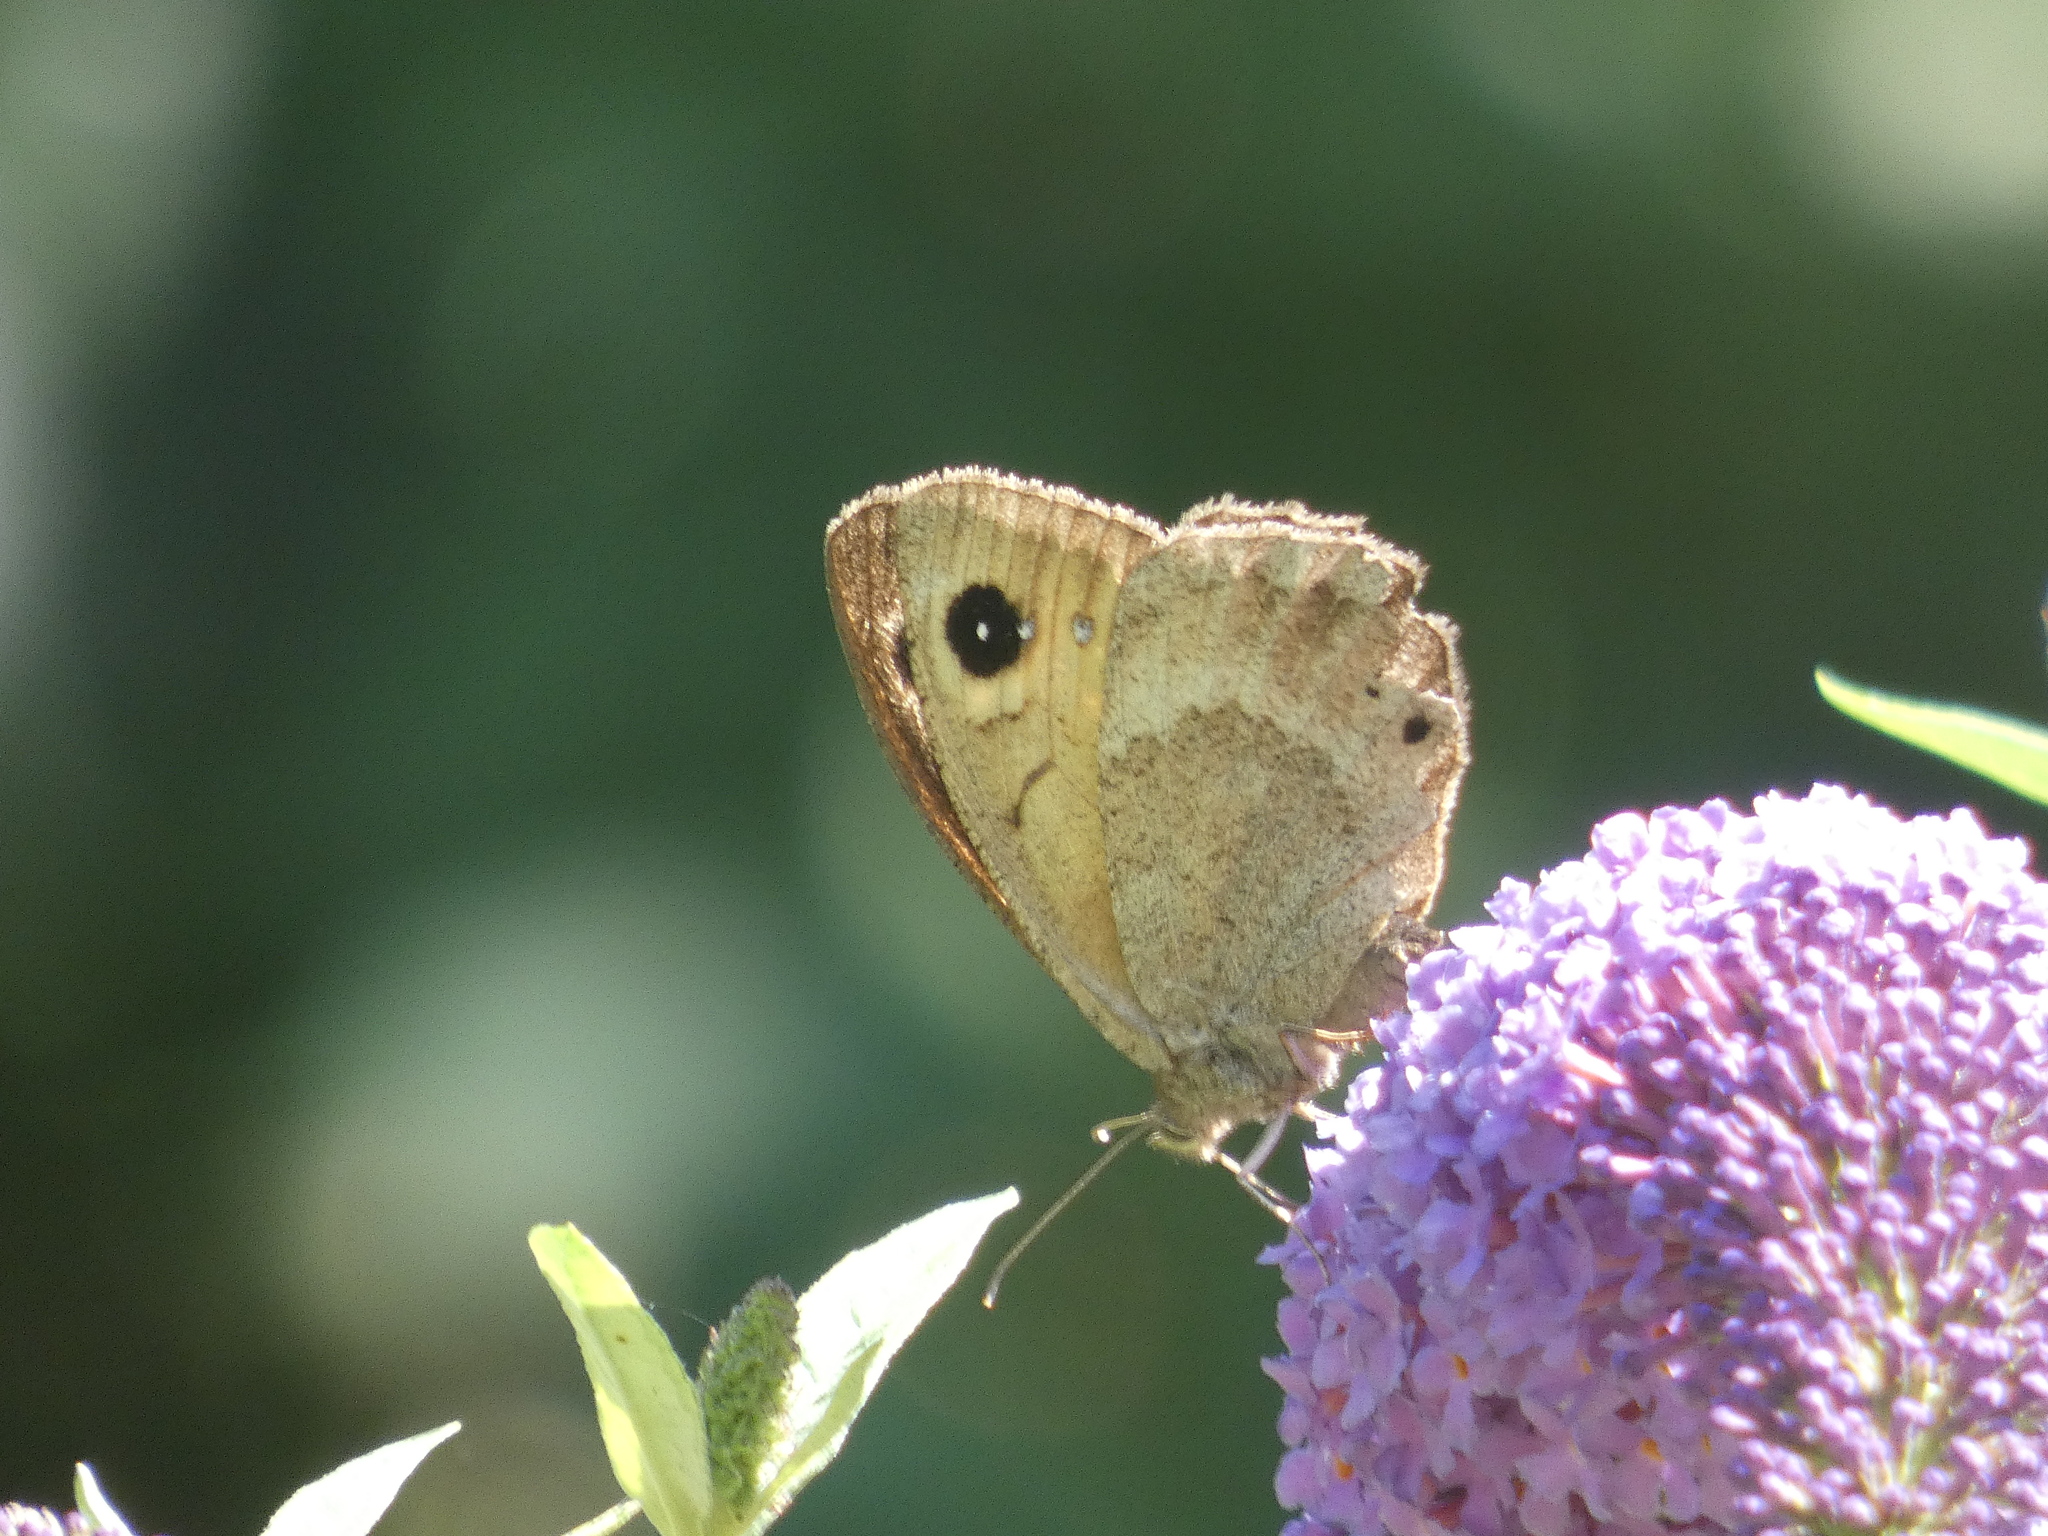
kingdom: Animalia
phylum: Arthropoda
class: Insecta
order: Lepidoptera
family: Nymphalidae
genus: Satyrus
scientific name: Satyrus ferula
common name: Great sooty satyr
